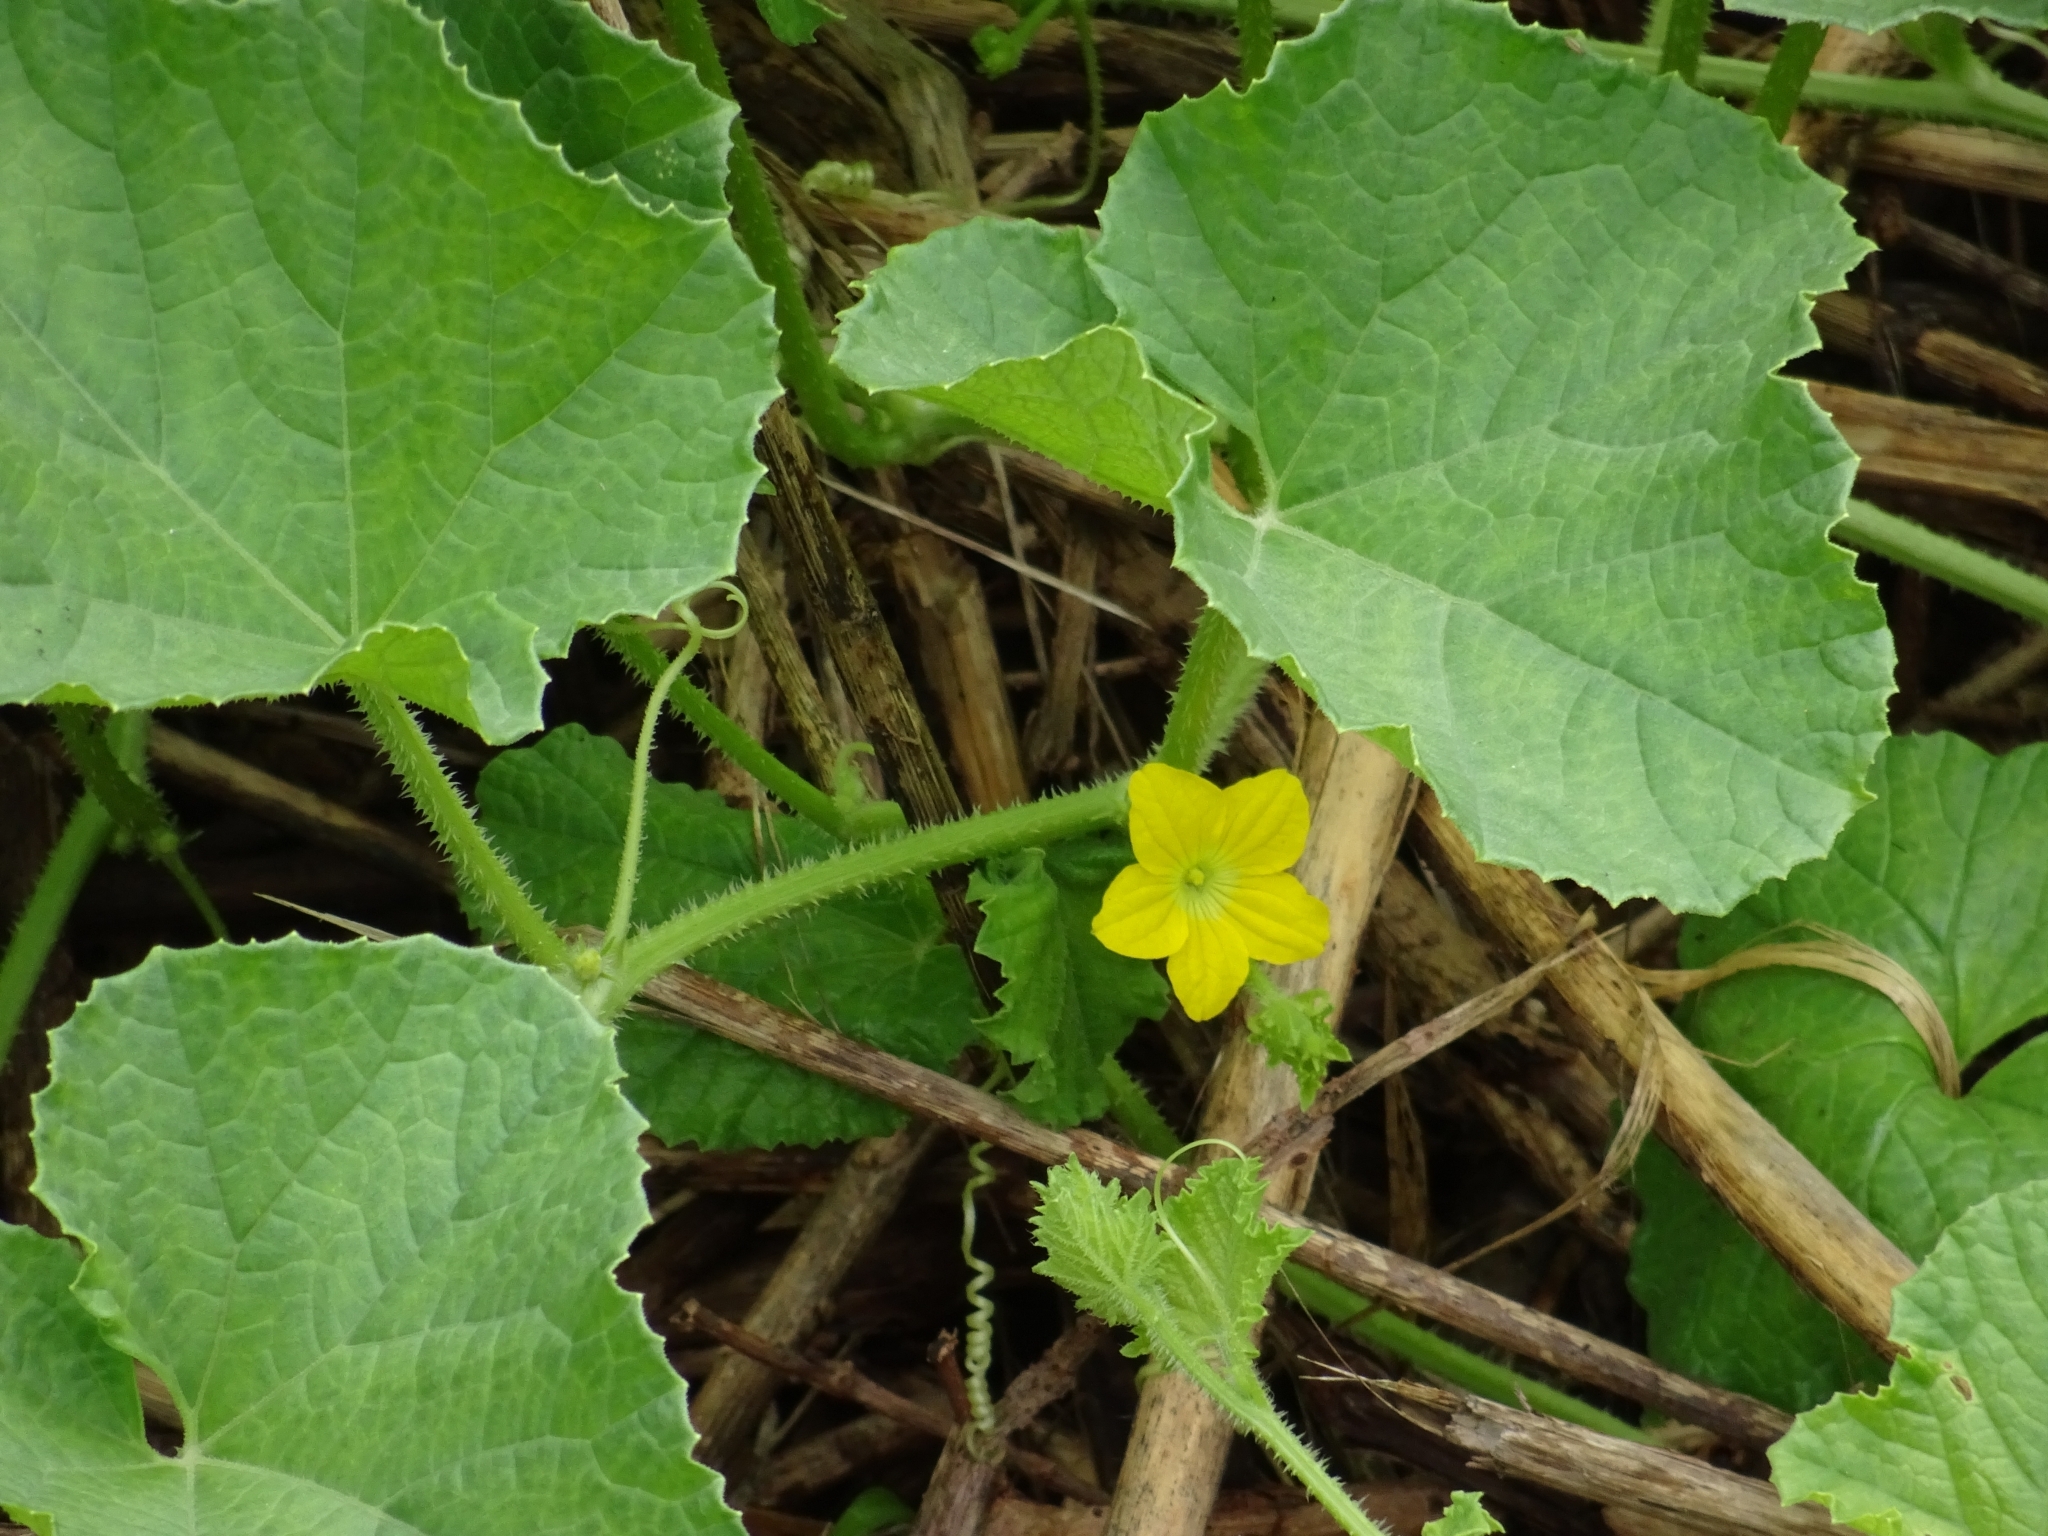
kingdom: Plantae
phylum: Tracheophyta
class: Magnoliopsida
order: Cucurbitales
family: Cucurbitaceae
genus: Cucumis
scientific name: Cucumis melo
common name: Melon
